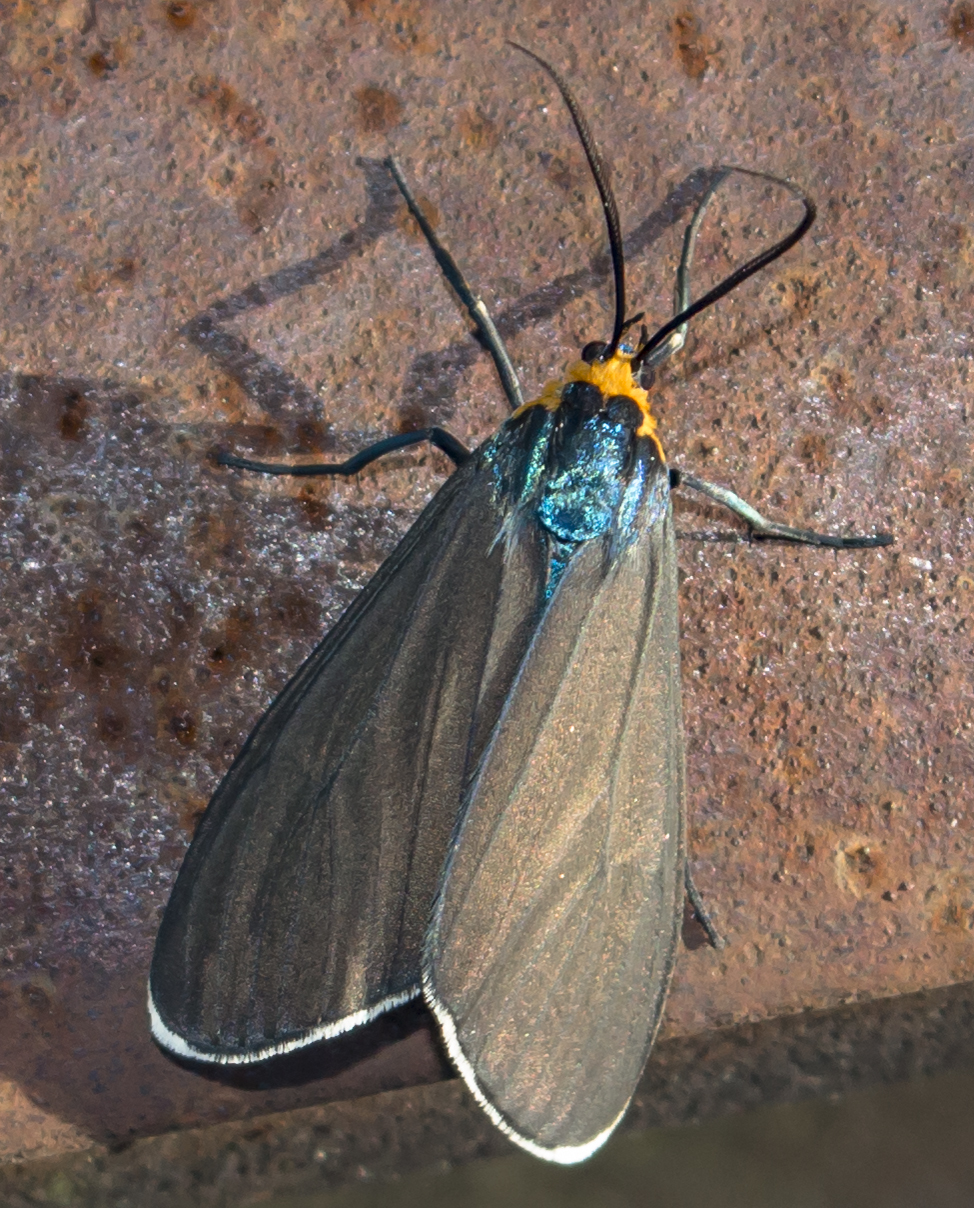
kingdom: Animalia
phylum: Arthropoda
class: Insecta
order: Lepidoptera
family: Erebidae
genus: Ctenucha
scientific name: Ctenucha virginica
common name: Virginia ctenucha moth
